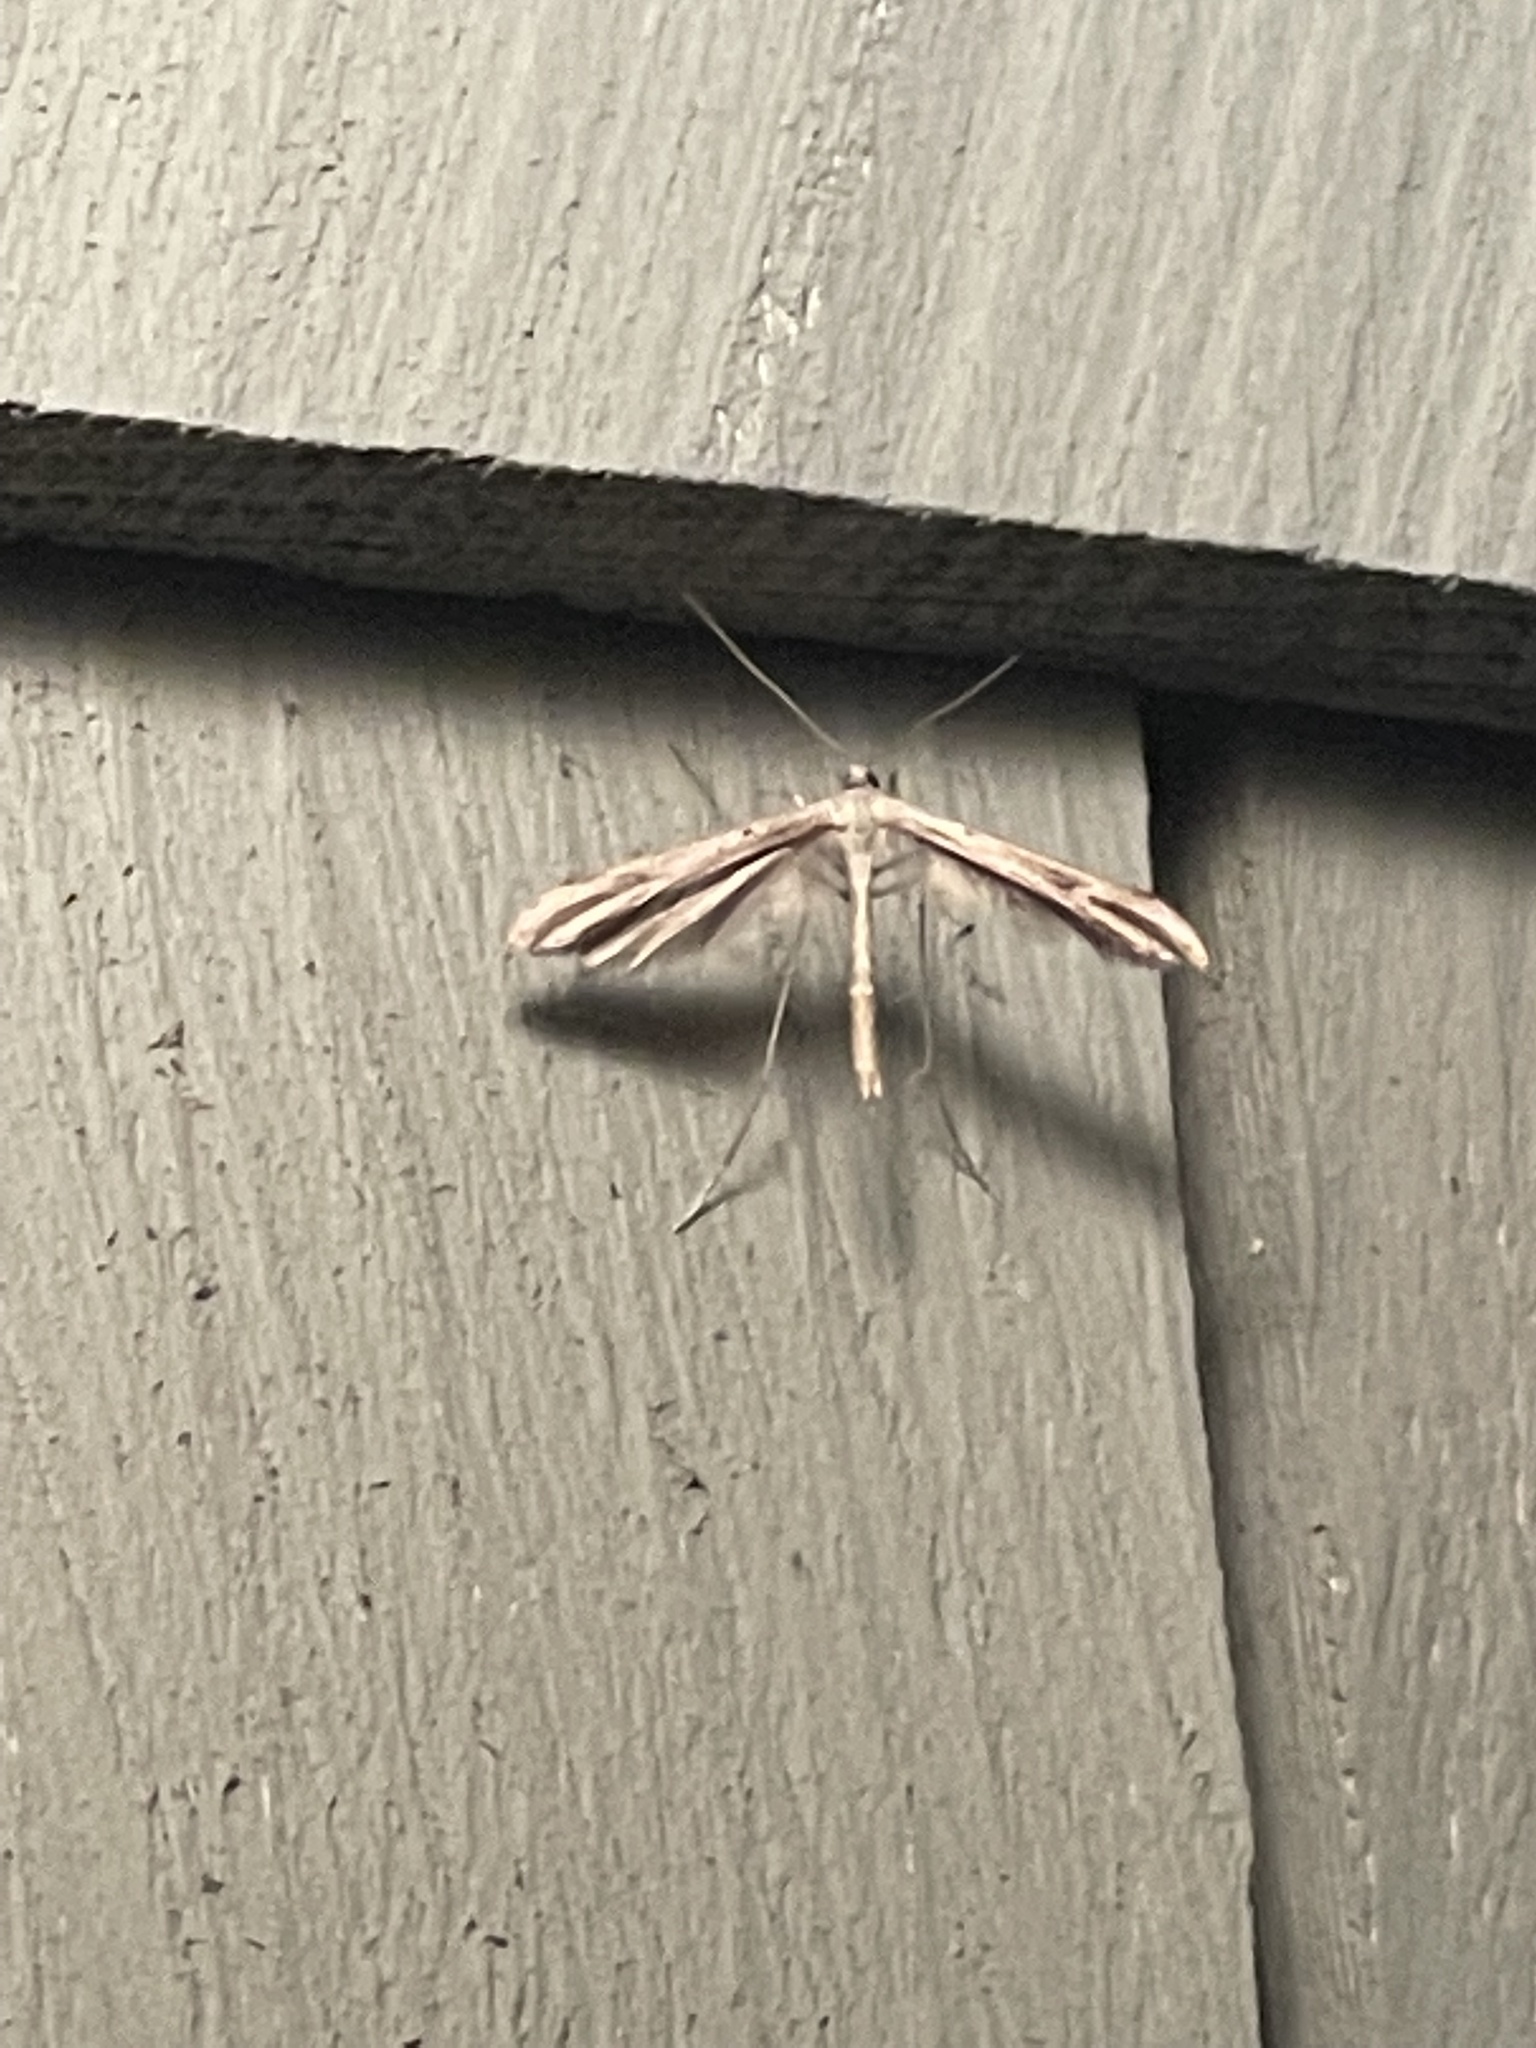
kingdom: Animalia
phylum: Arthropoda
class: Insecta
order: Lepidoptera
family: Pterophoridae
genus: Emmelina
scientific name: Emmelina monodactyla
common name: Common plume
